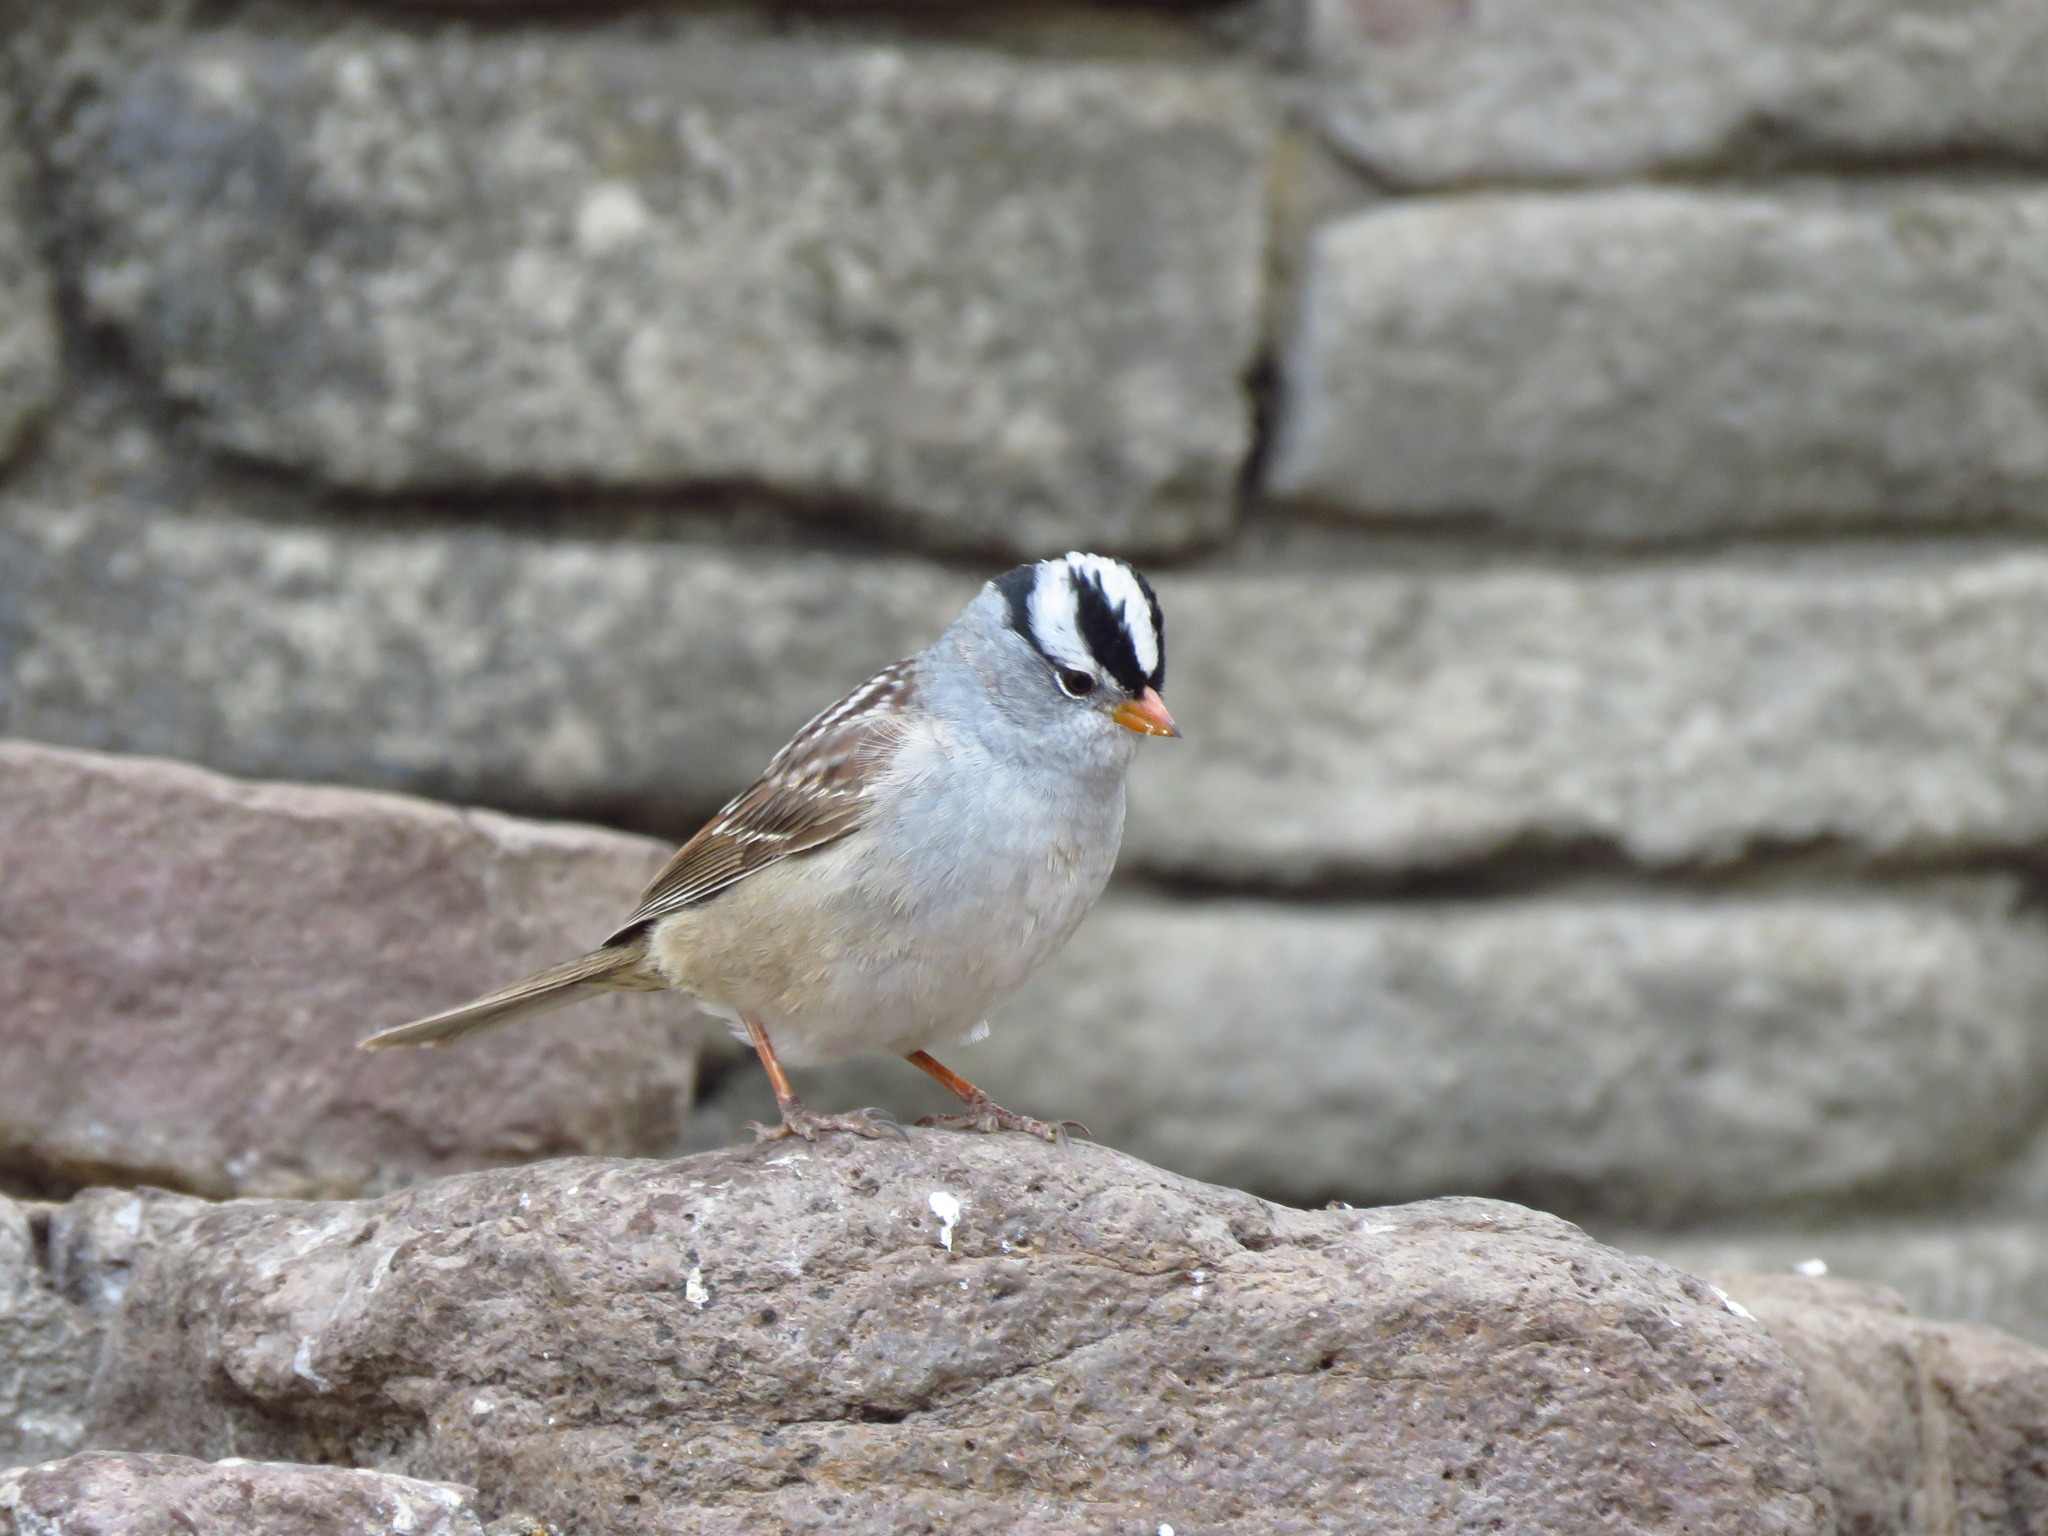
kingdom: Animalia
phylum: Chordata
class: Aves
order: Passeriformes
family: Passerellidae
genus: Zonotrichia
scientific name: Zonotrichia leucophrys
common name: White-crowned sparrow
